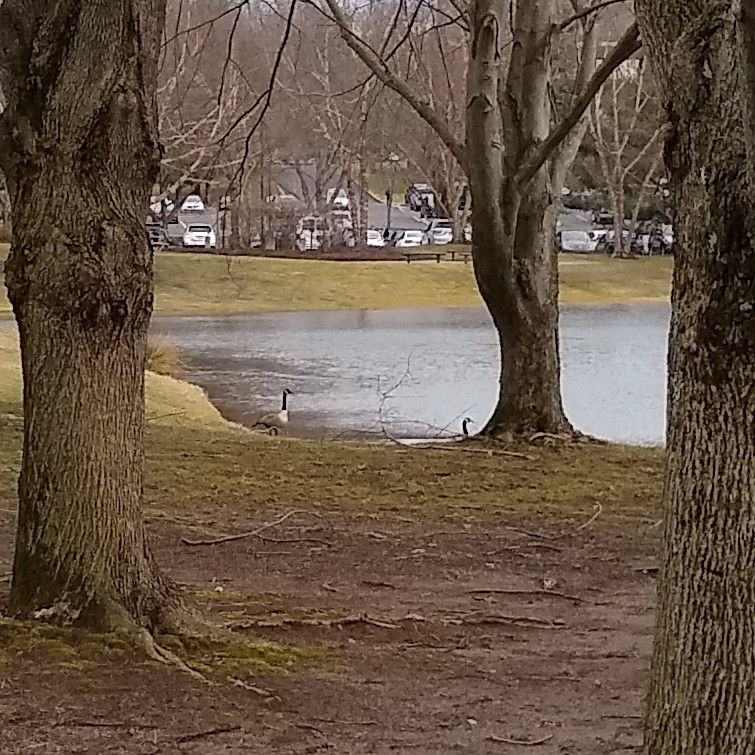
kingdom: Animalia
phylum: Chordata
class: Aves
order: Anseriformes
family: Anatidae
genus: Branta
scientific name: Branta canadensis
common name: Canada goose
